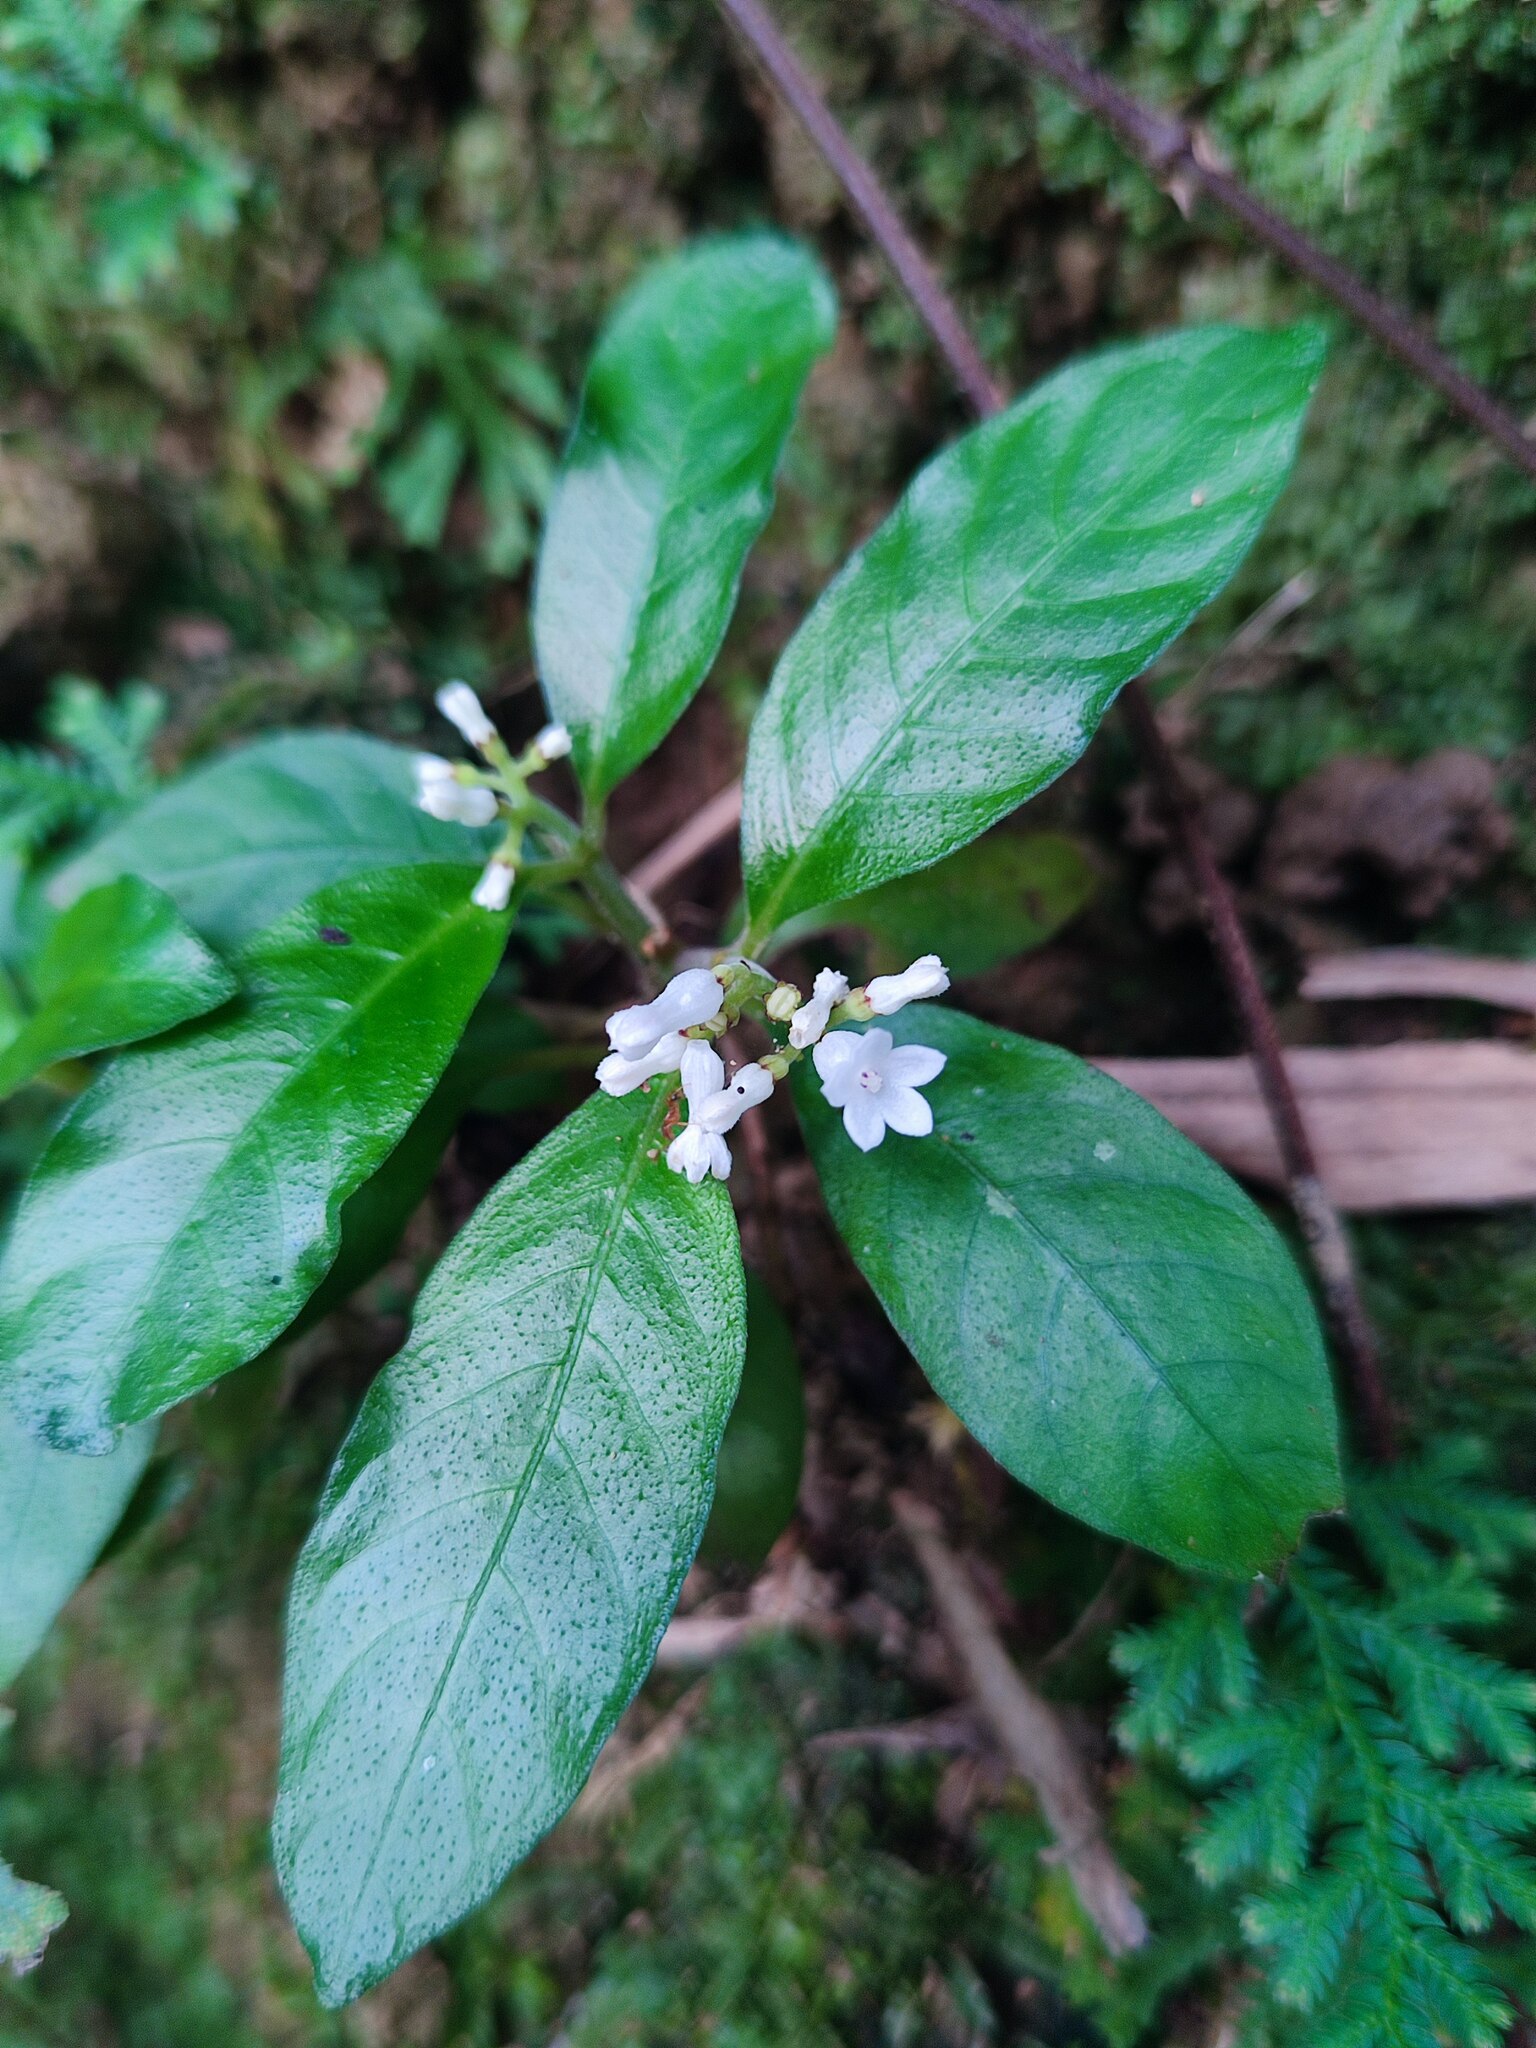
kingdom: Plantae
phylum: Tracheophyta
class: Magnoliopsida
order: Gentianales
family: Rubiaceae
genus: Ophiorrhiza
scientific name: Ophiorrhiza pumila
